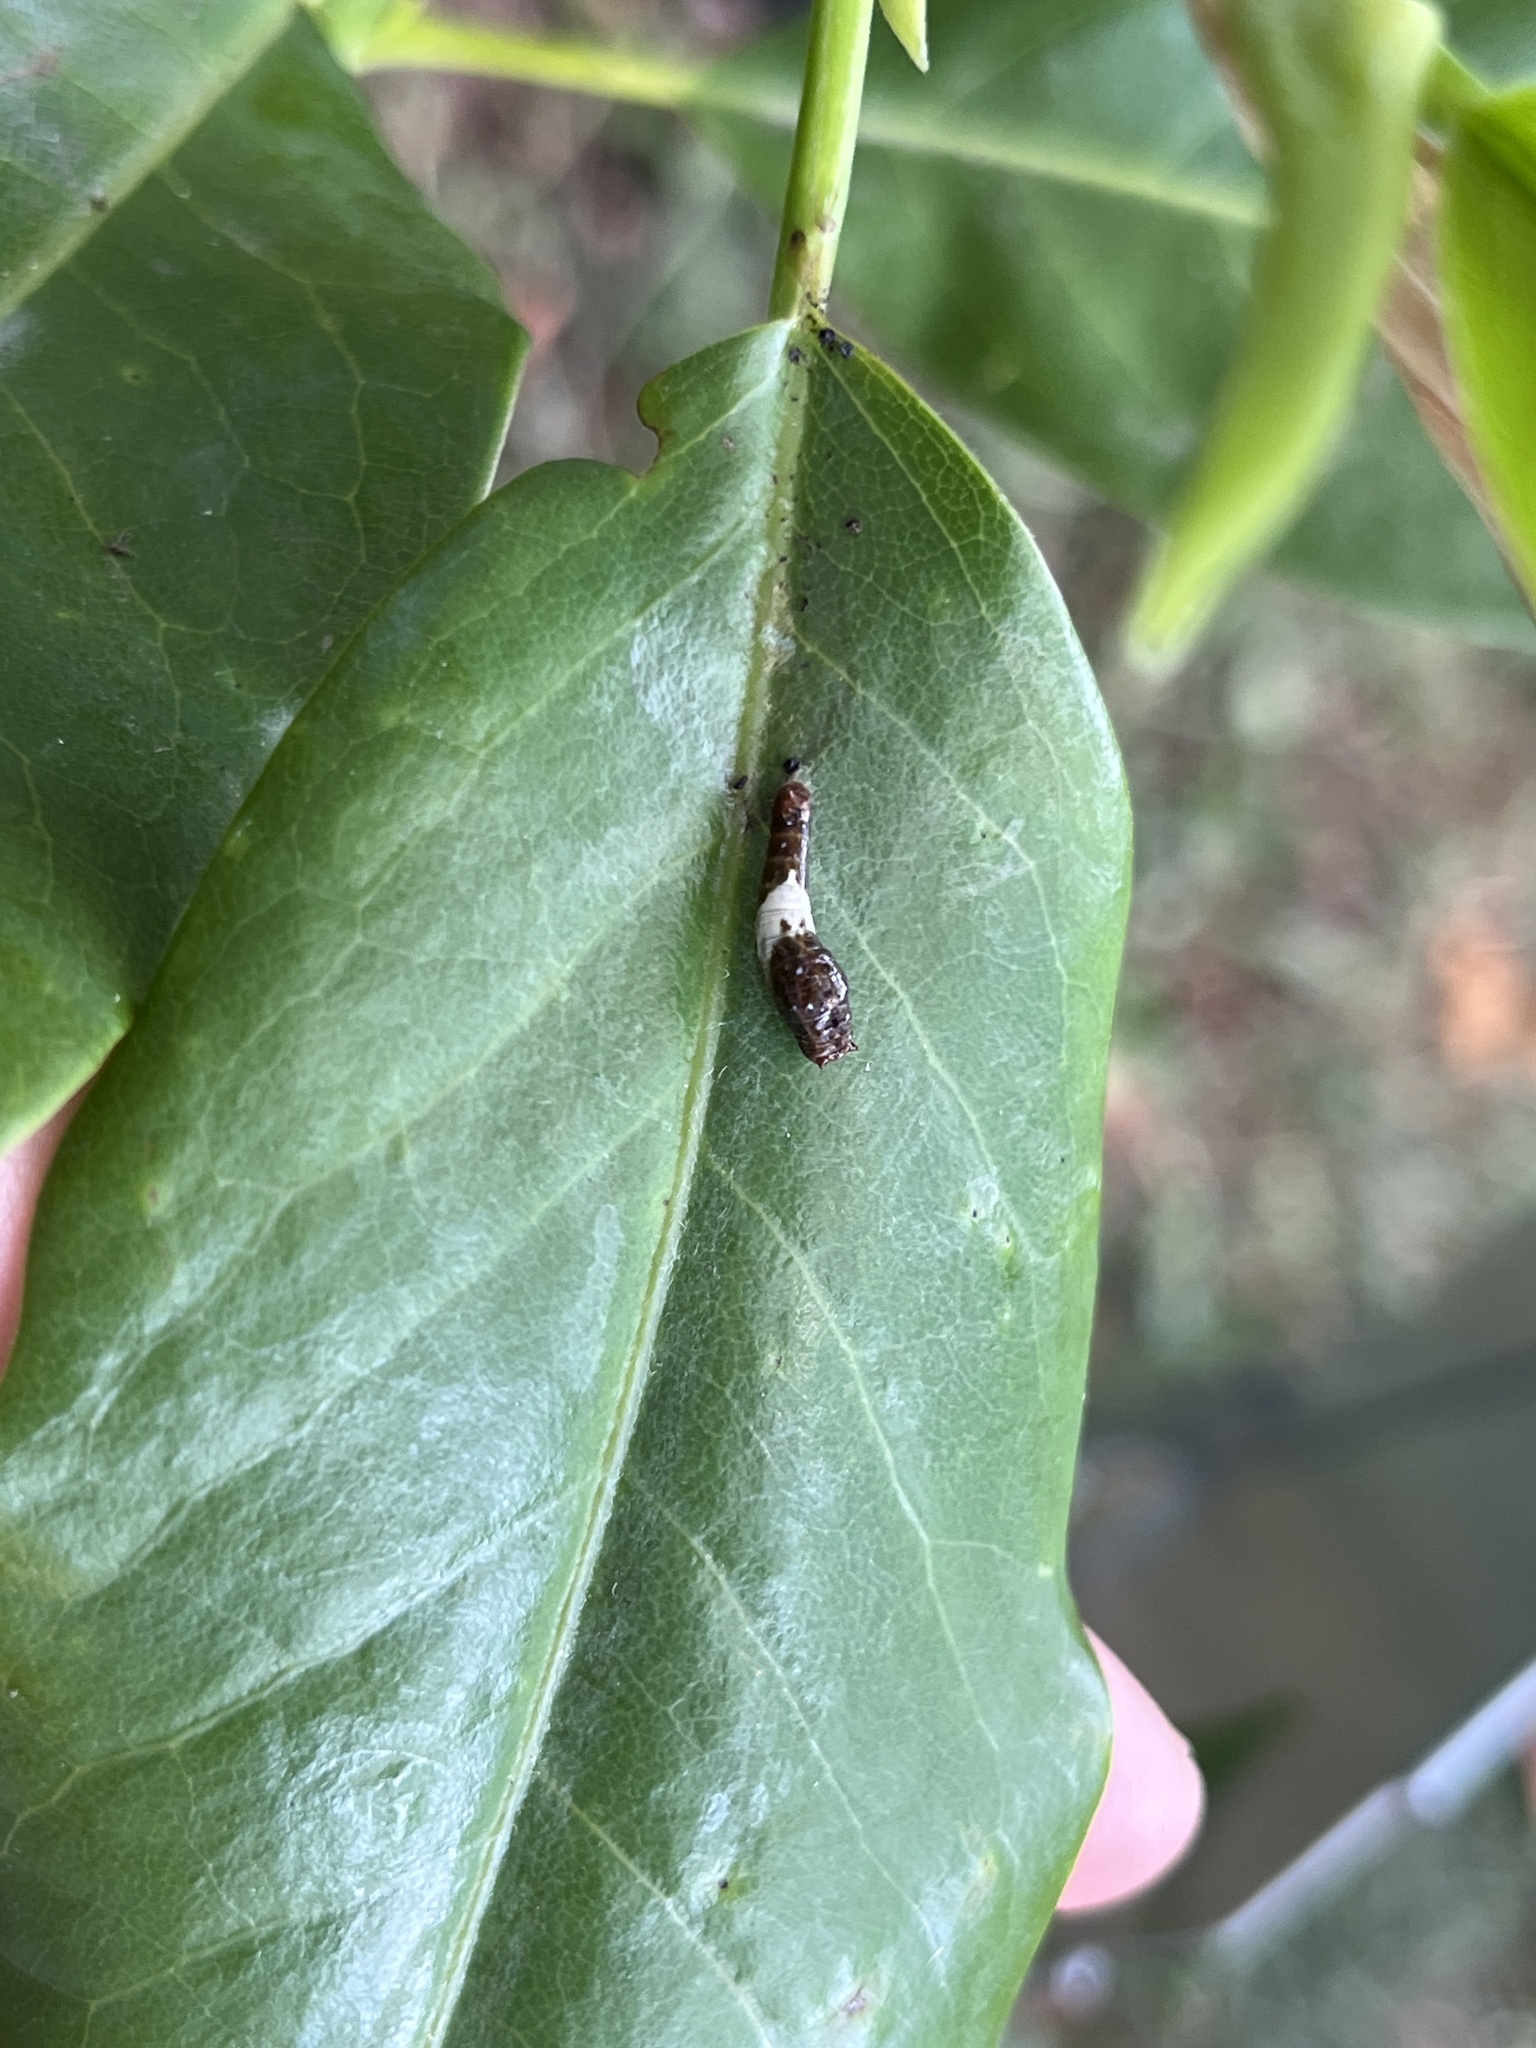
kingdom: Animalia
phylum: Arthropoda
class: Insecta
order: Lepidoptera
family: Papilionidae
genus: Papilio
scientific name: Papilio glaucus
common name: Tiger swallowtail
